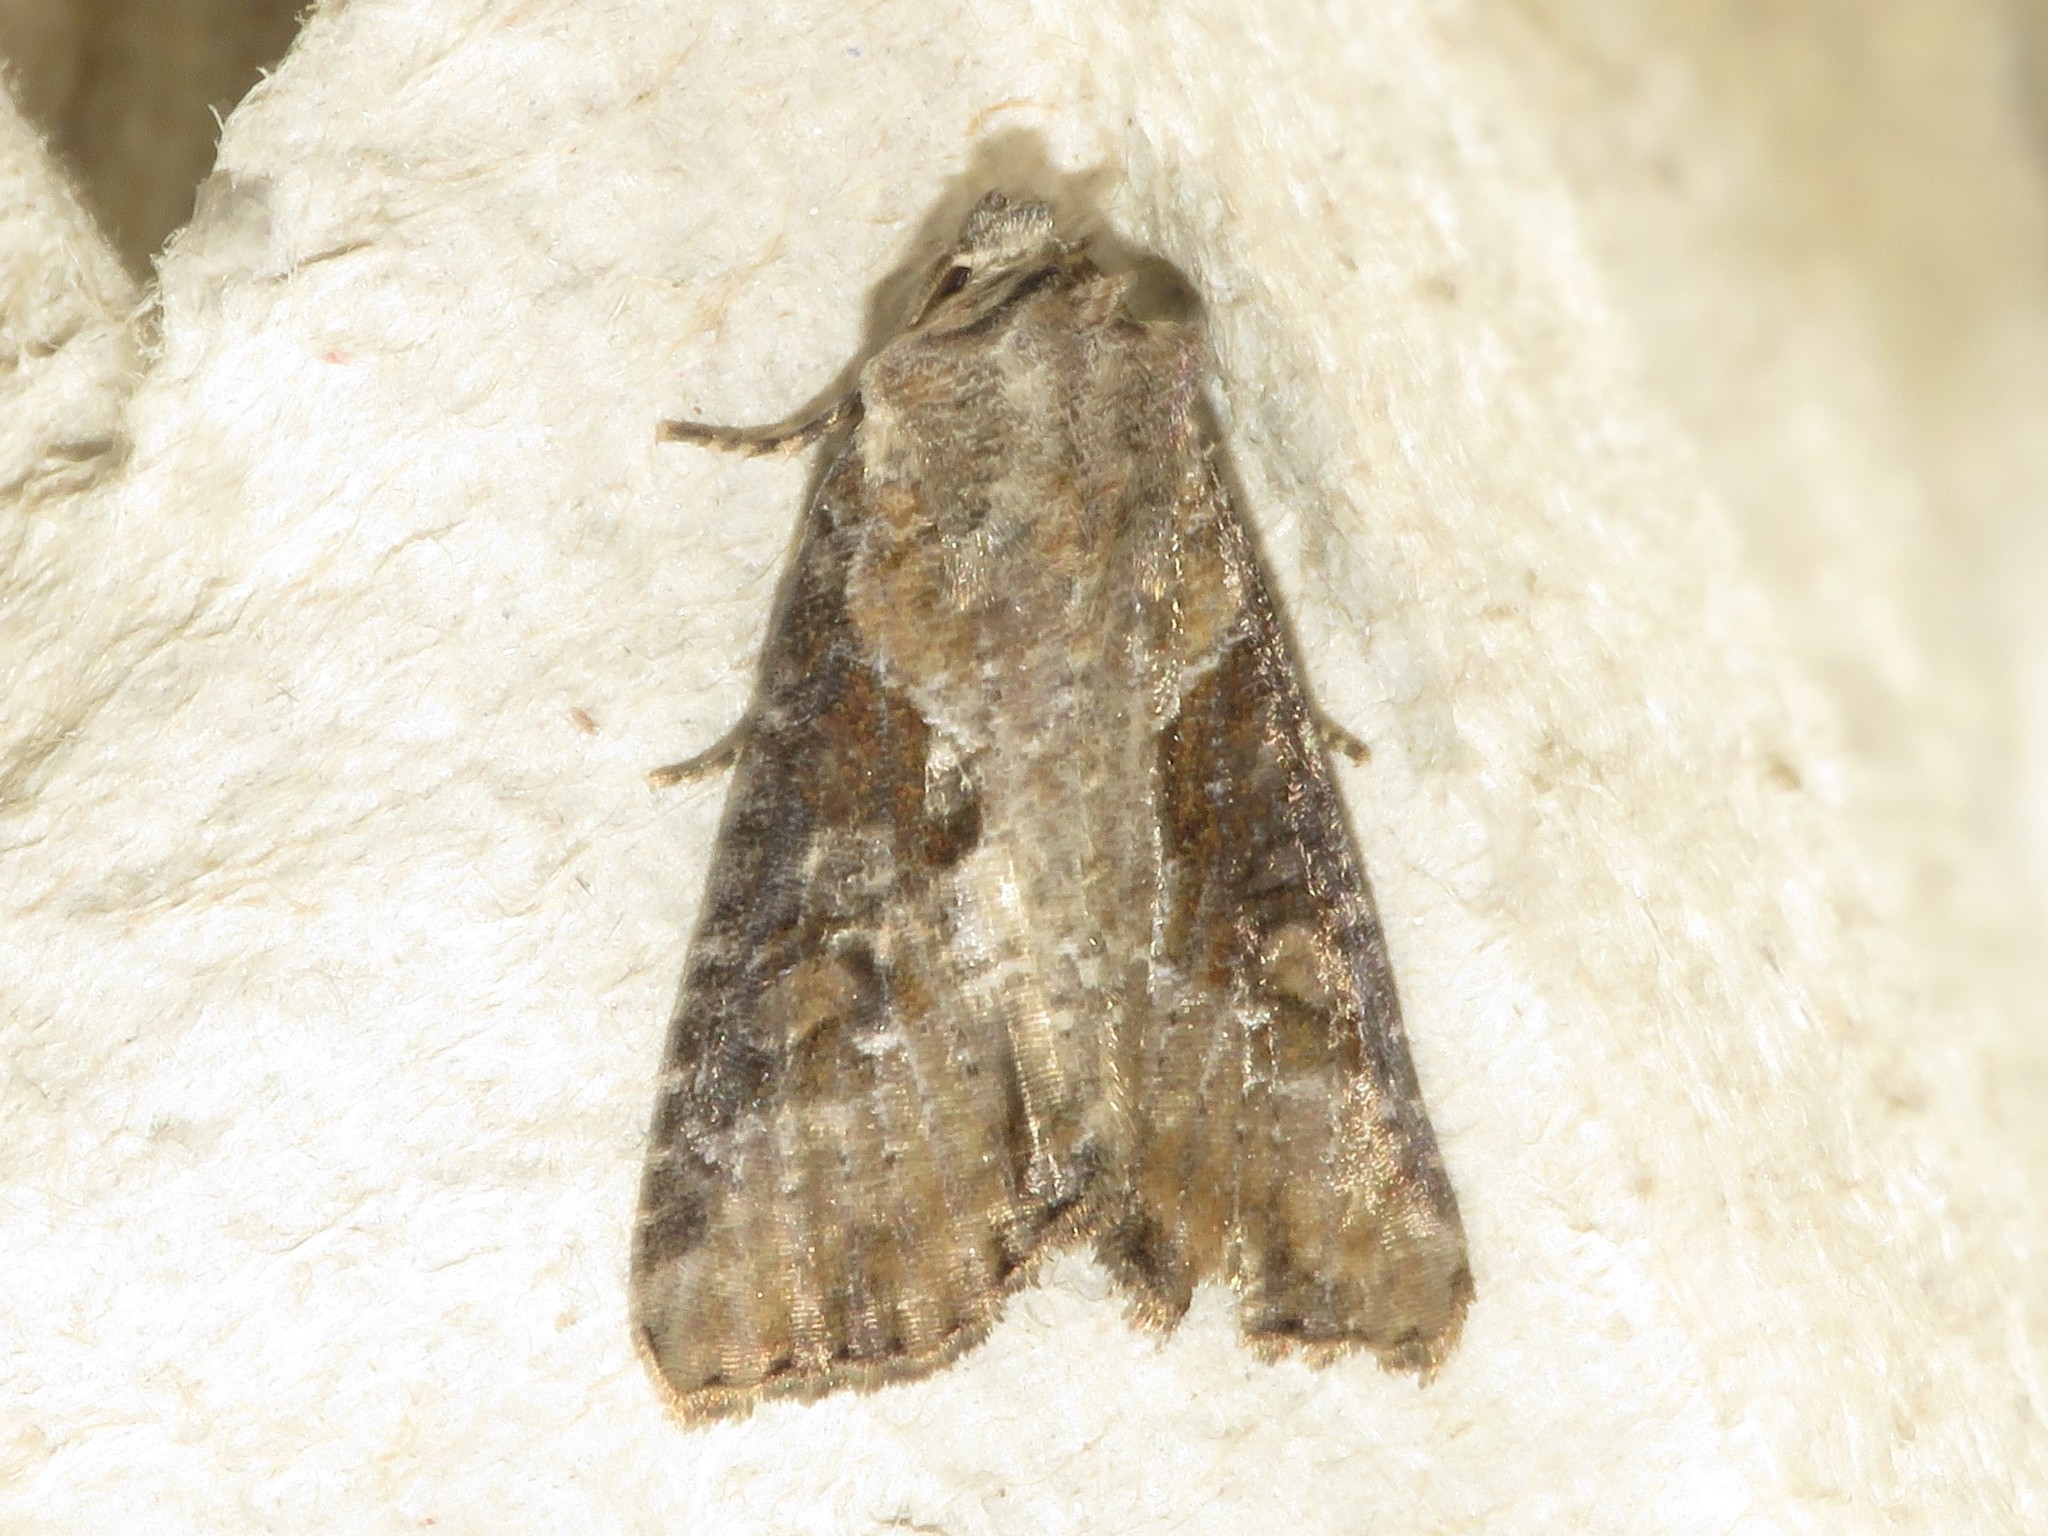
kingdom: Animalia
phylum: Arthropoda
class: Insecta
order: Lepidoptera
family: Noctuidae
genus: Lateroligia
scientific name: Lateroligia ophiogramma
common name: Double lobed
